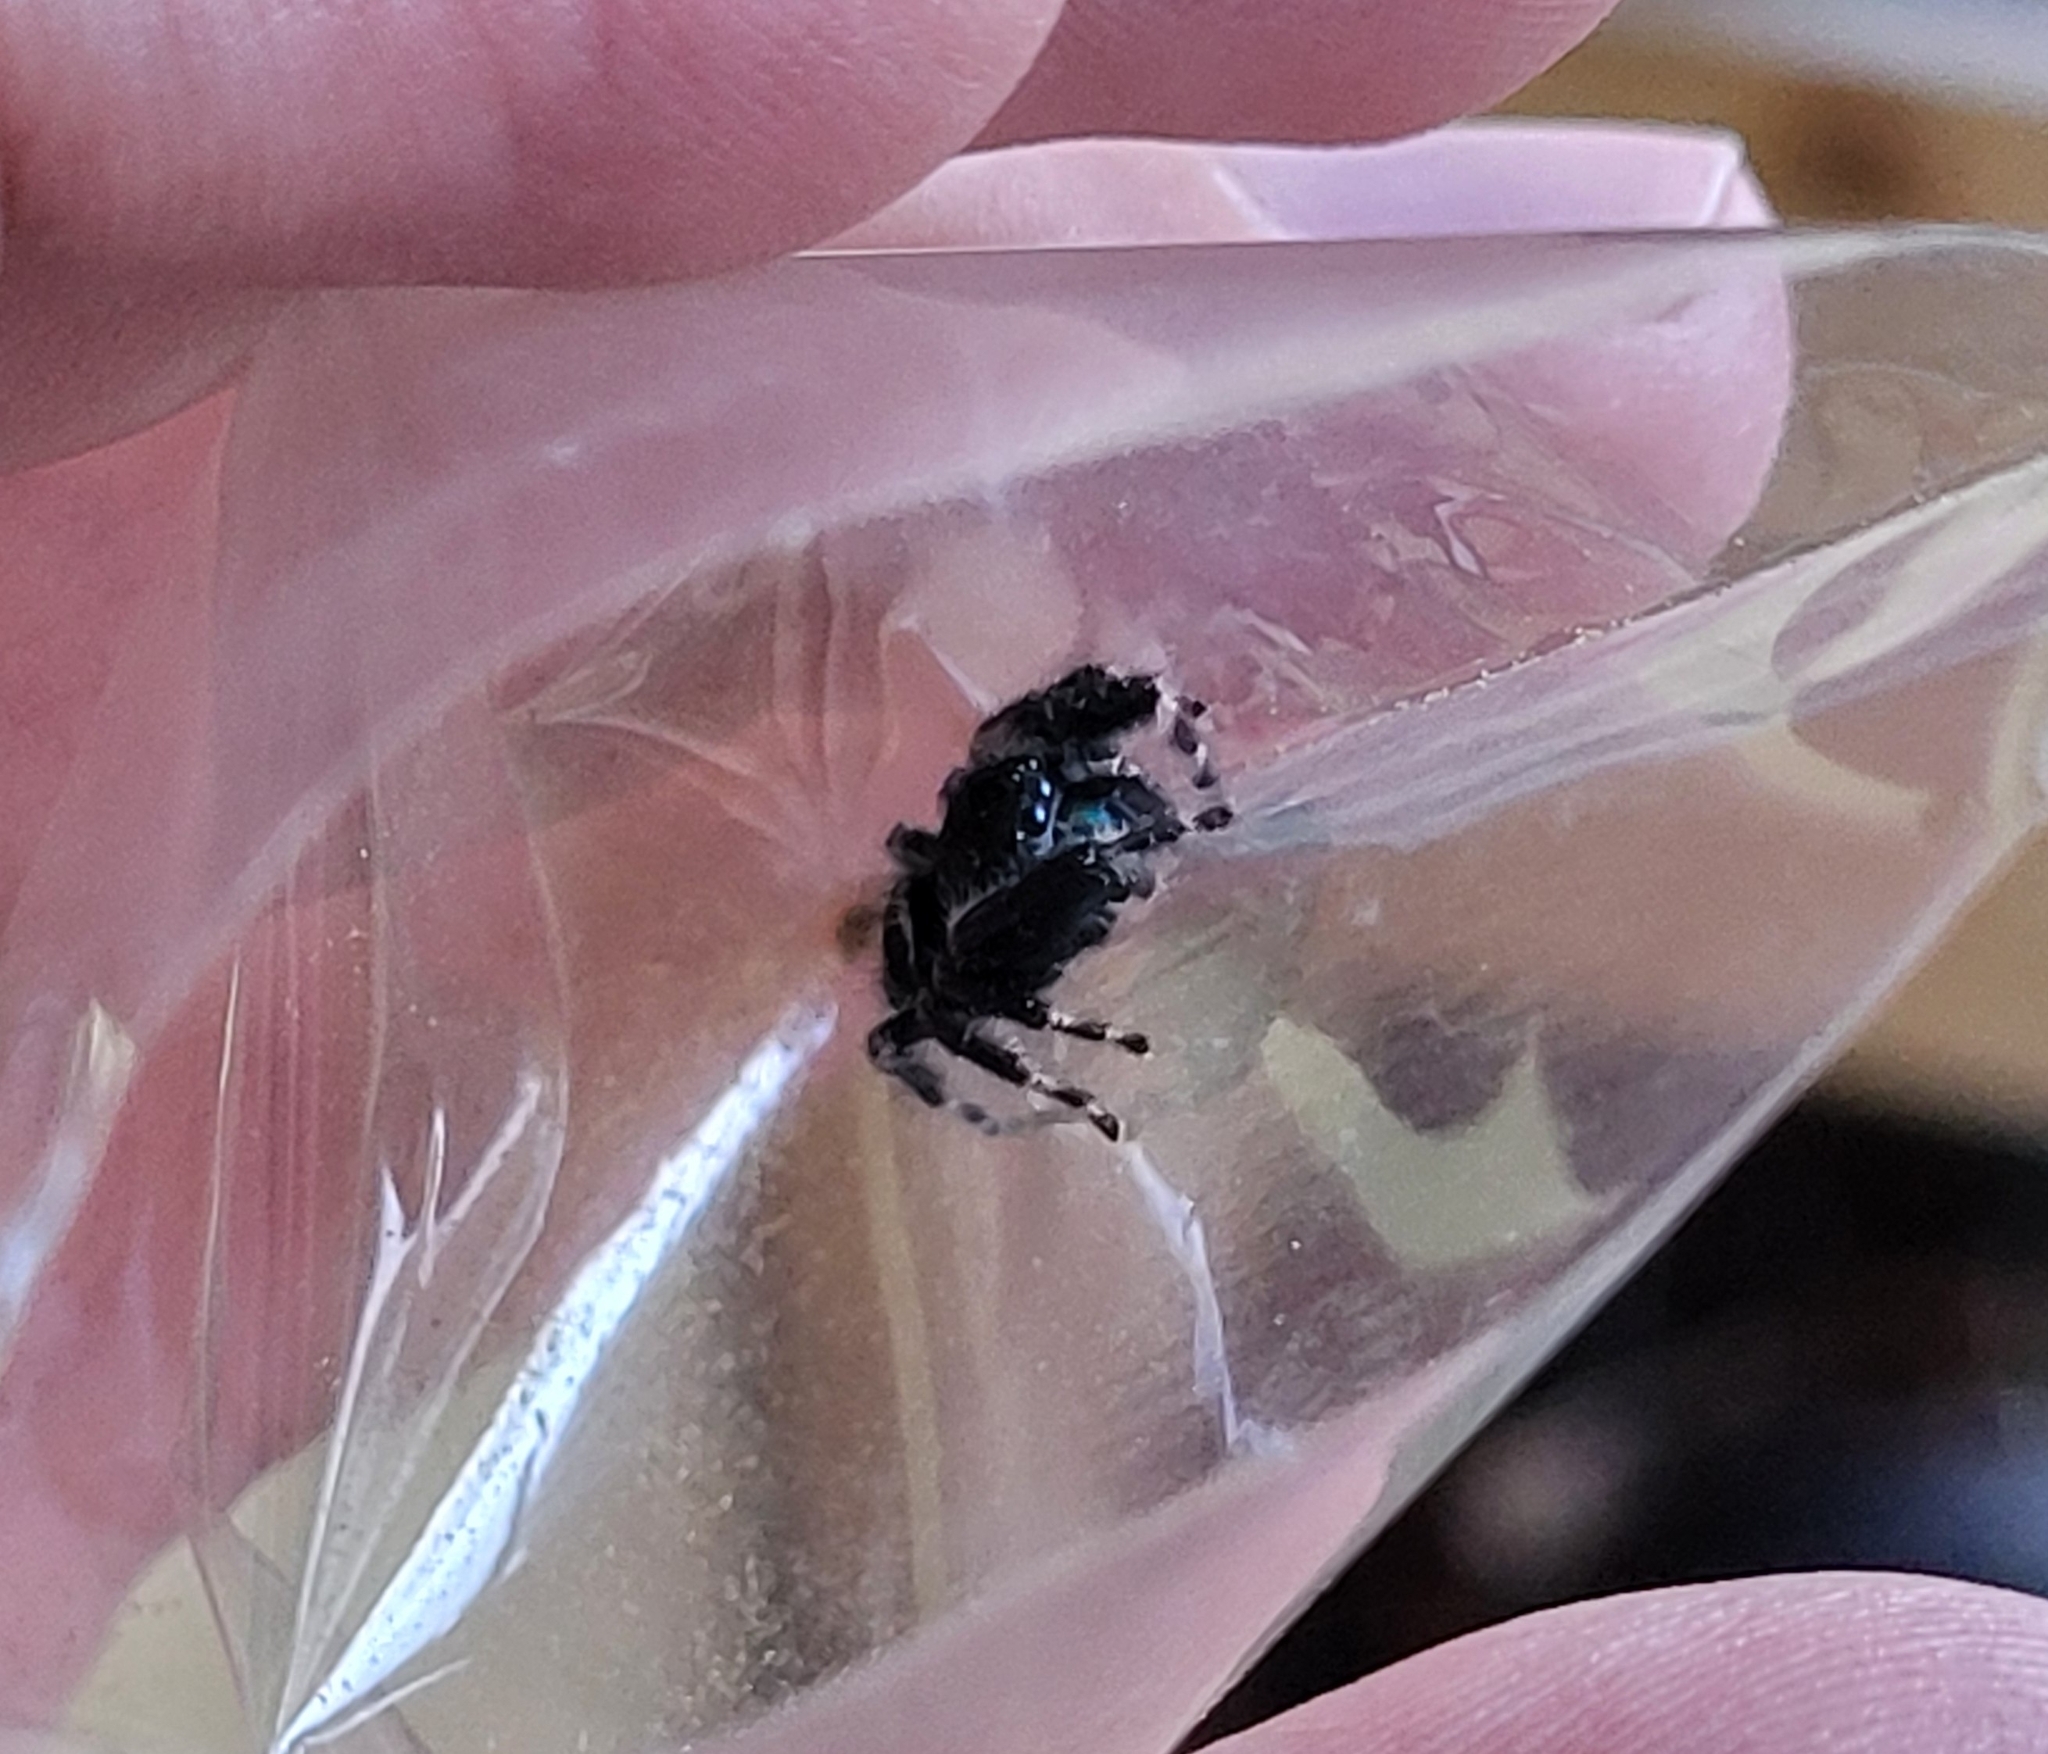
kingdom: Animalia
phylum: Arthropoda
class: Arachnida
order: Araneae
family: Salticidae
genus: Phidippus
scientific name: Phidippus audax
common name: Bold jumper
